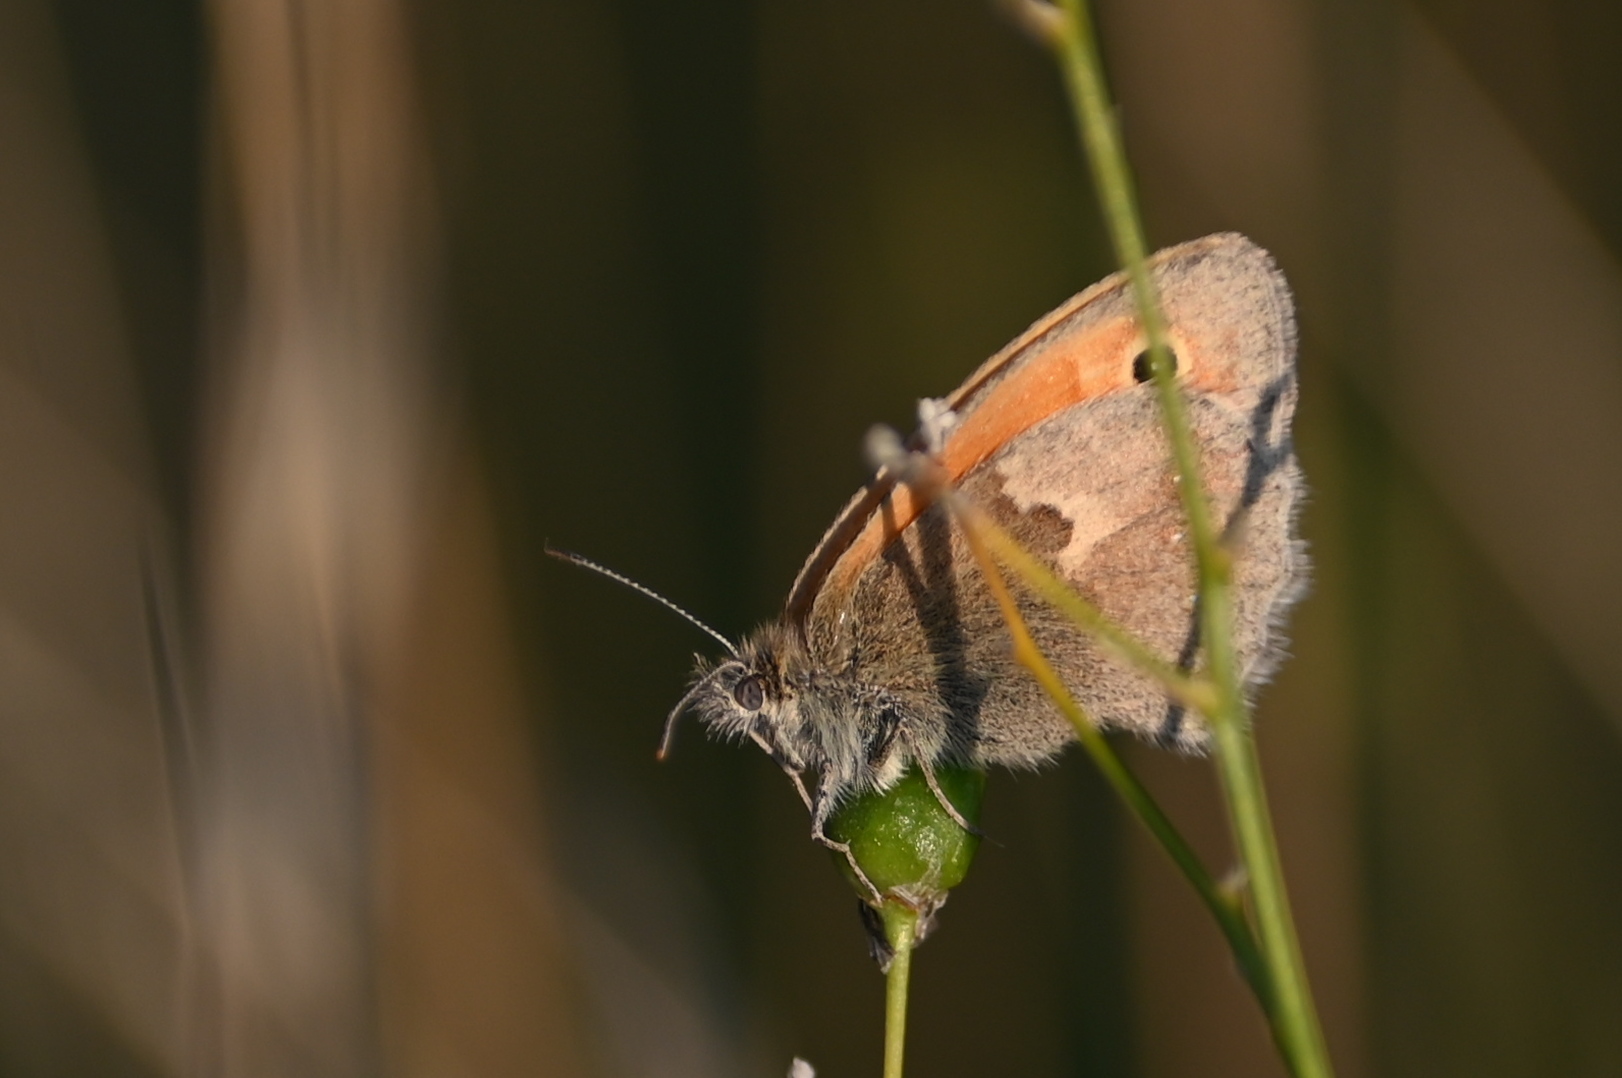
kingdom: Animalia
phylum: Arthropoda
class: Insecta
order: Lepidoptera
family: Nymphalidae
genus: Coenonympha
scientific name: Coenonympha pamphilus
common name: Small heath
